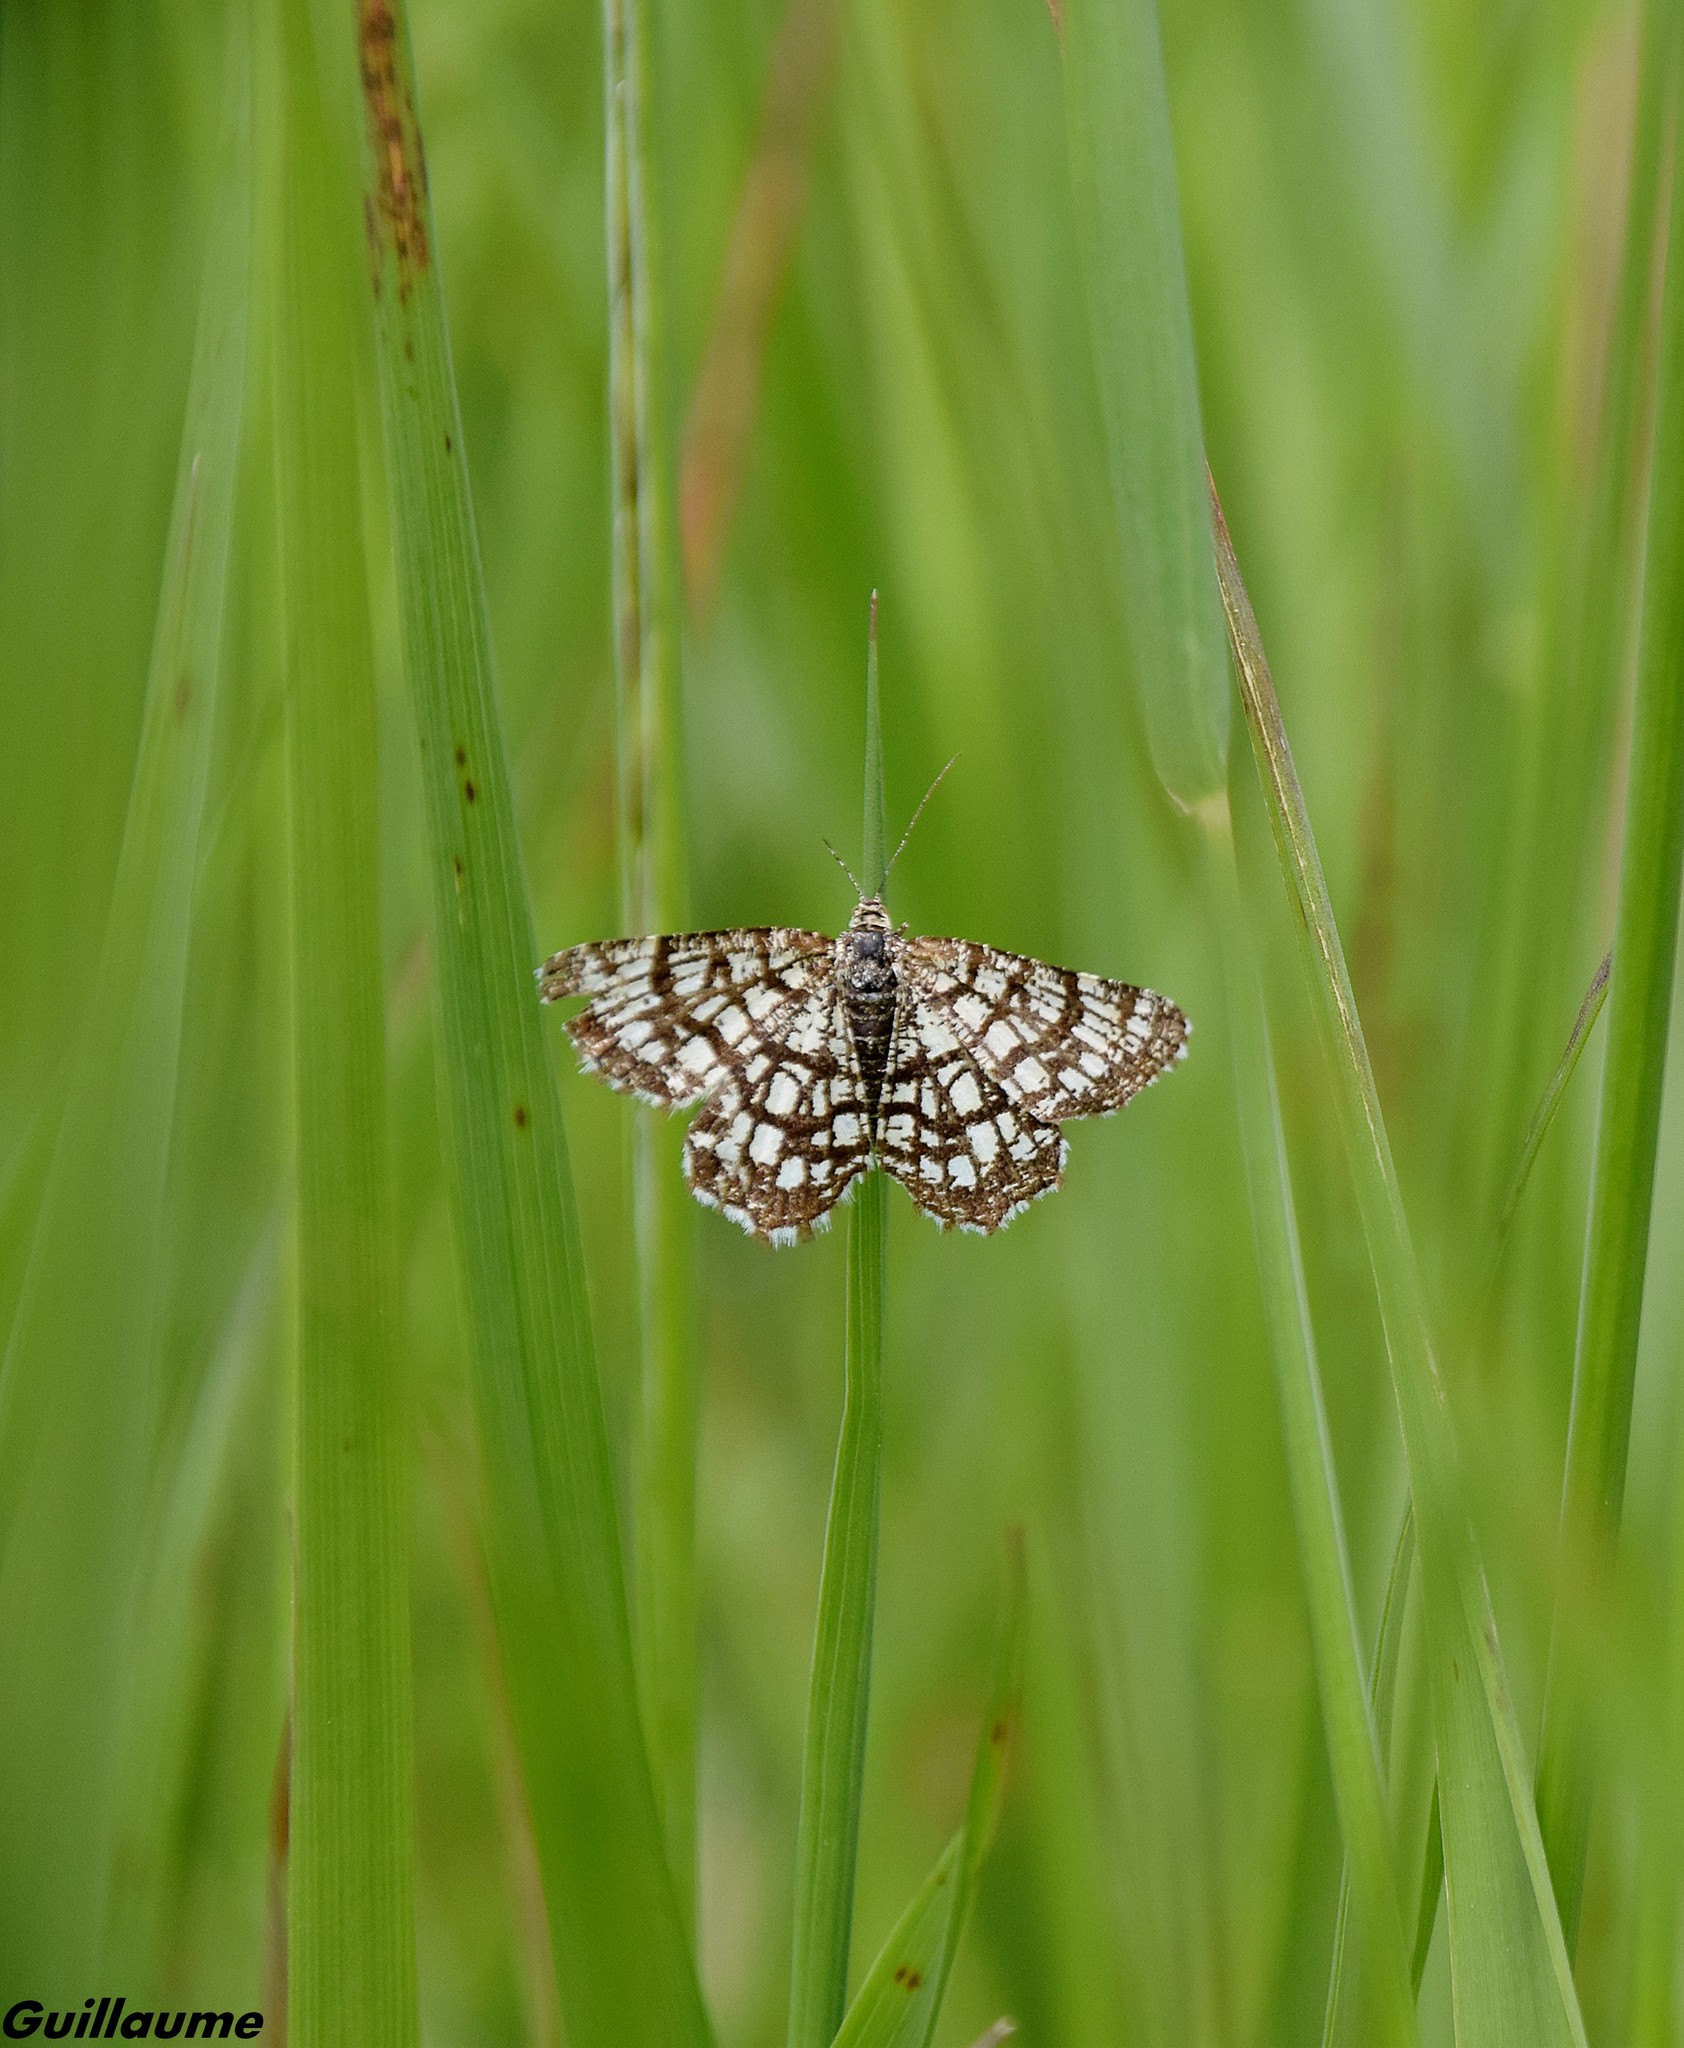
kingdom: Animalia
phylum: Arthropoda
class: Insecta
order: Lepidoptera
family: Geometridae
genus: Chiasmia
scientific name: Chiasmia clathrata
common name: Latticed heath
